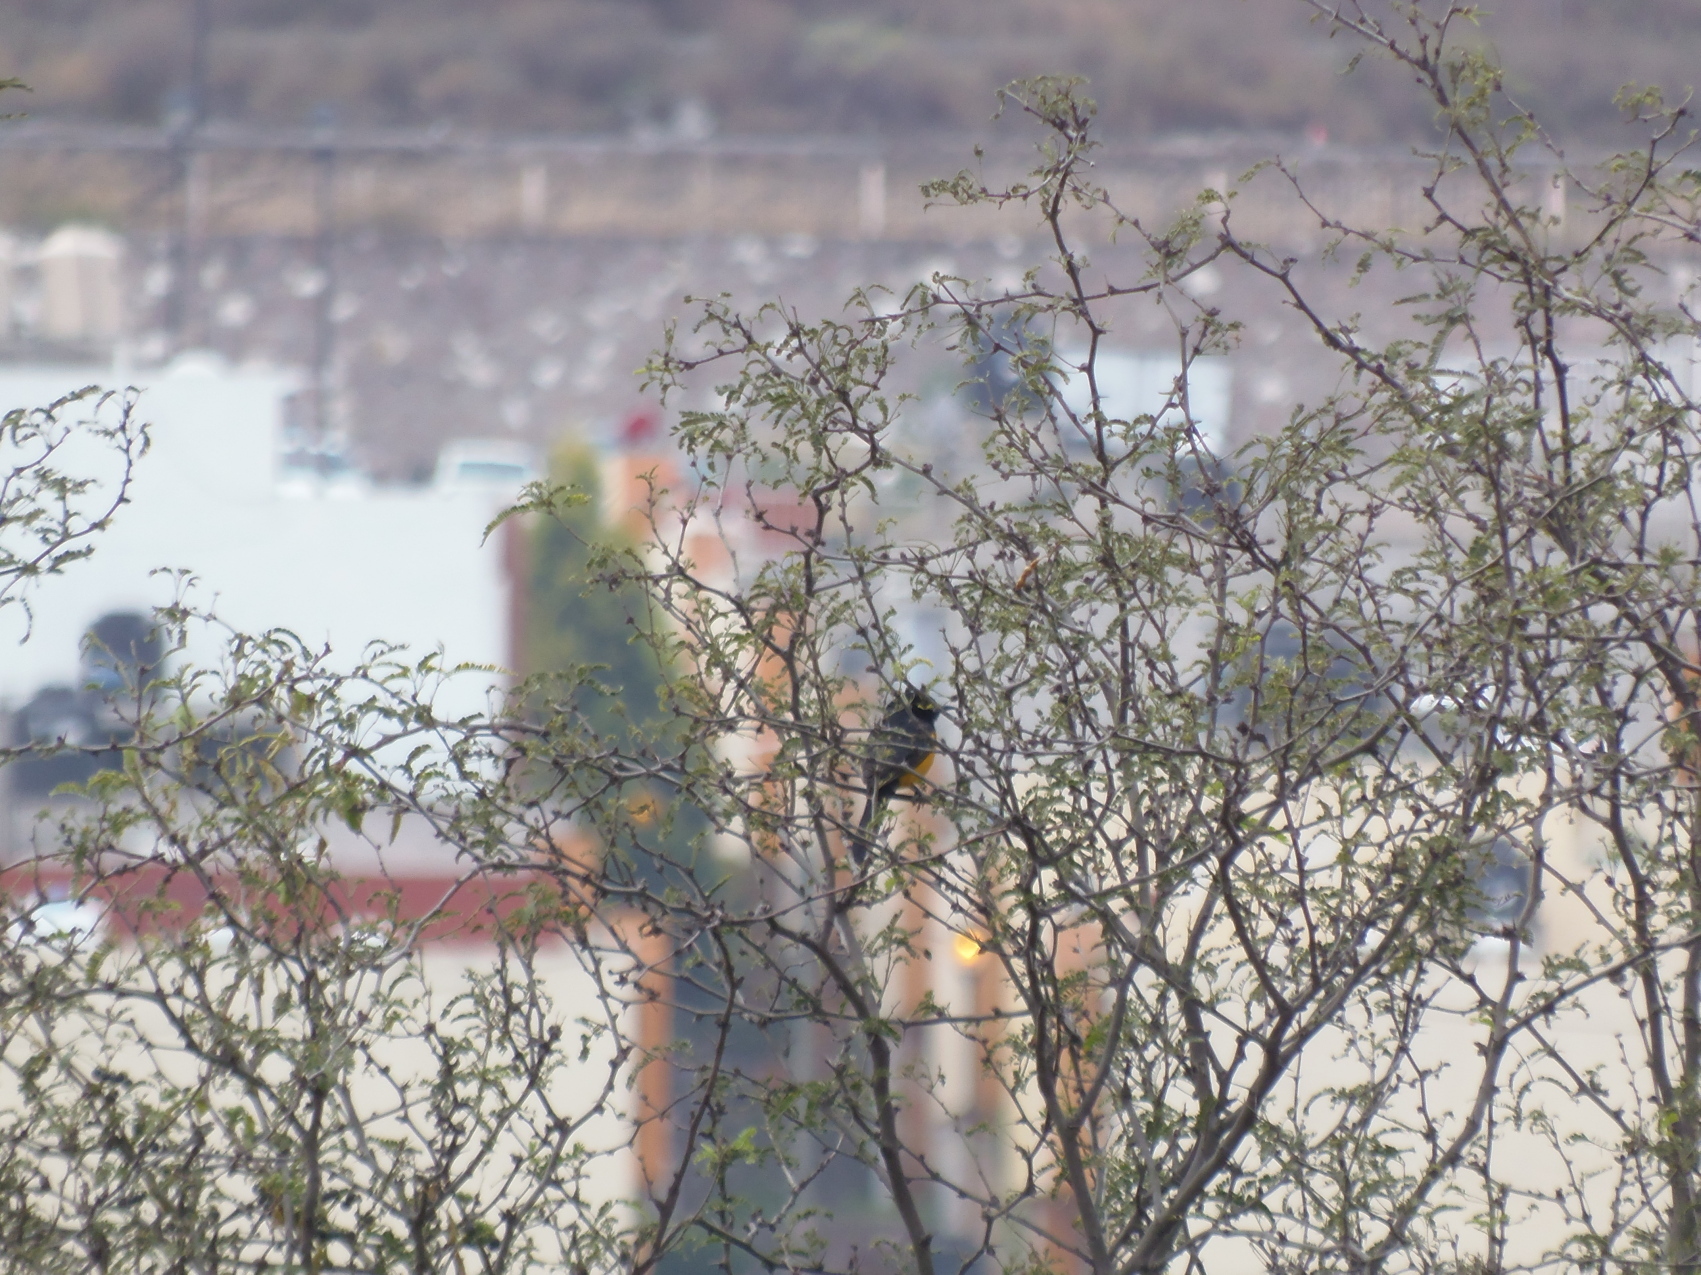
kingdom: Animalia
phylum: Chordata
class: Aves
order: Passeriformes
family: Icteridae
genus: Icterus
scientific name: Icterus parisorum
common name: Scott's oriole
